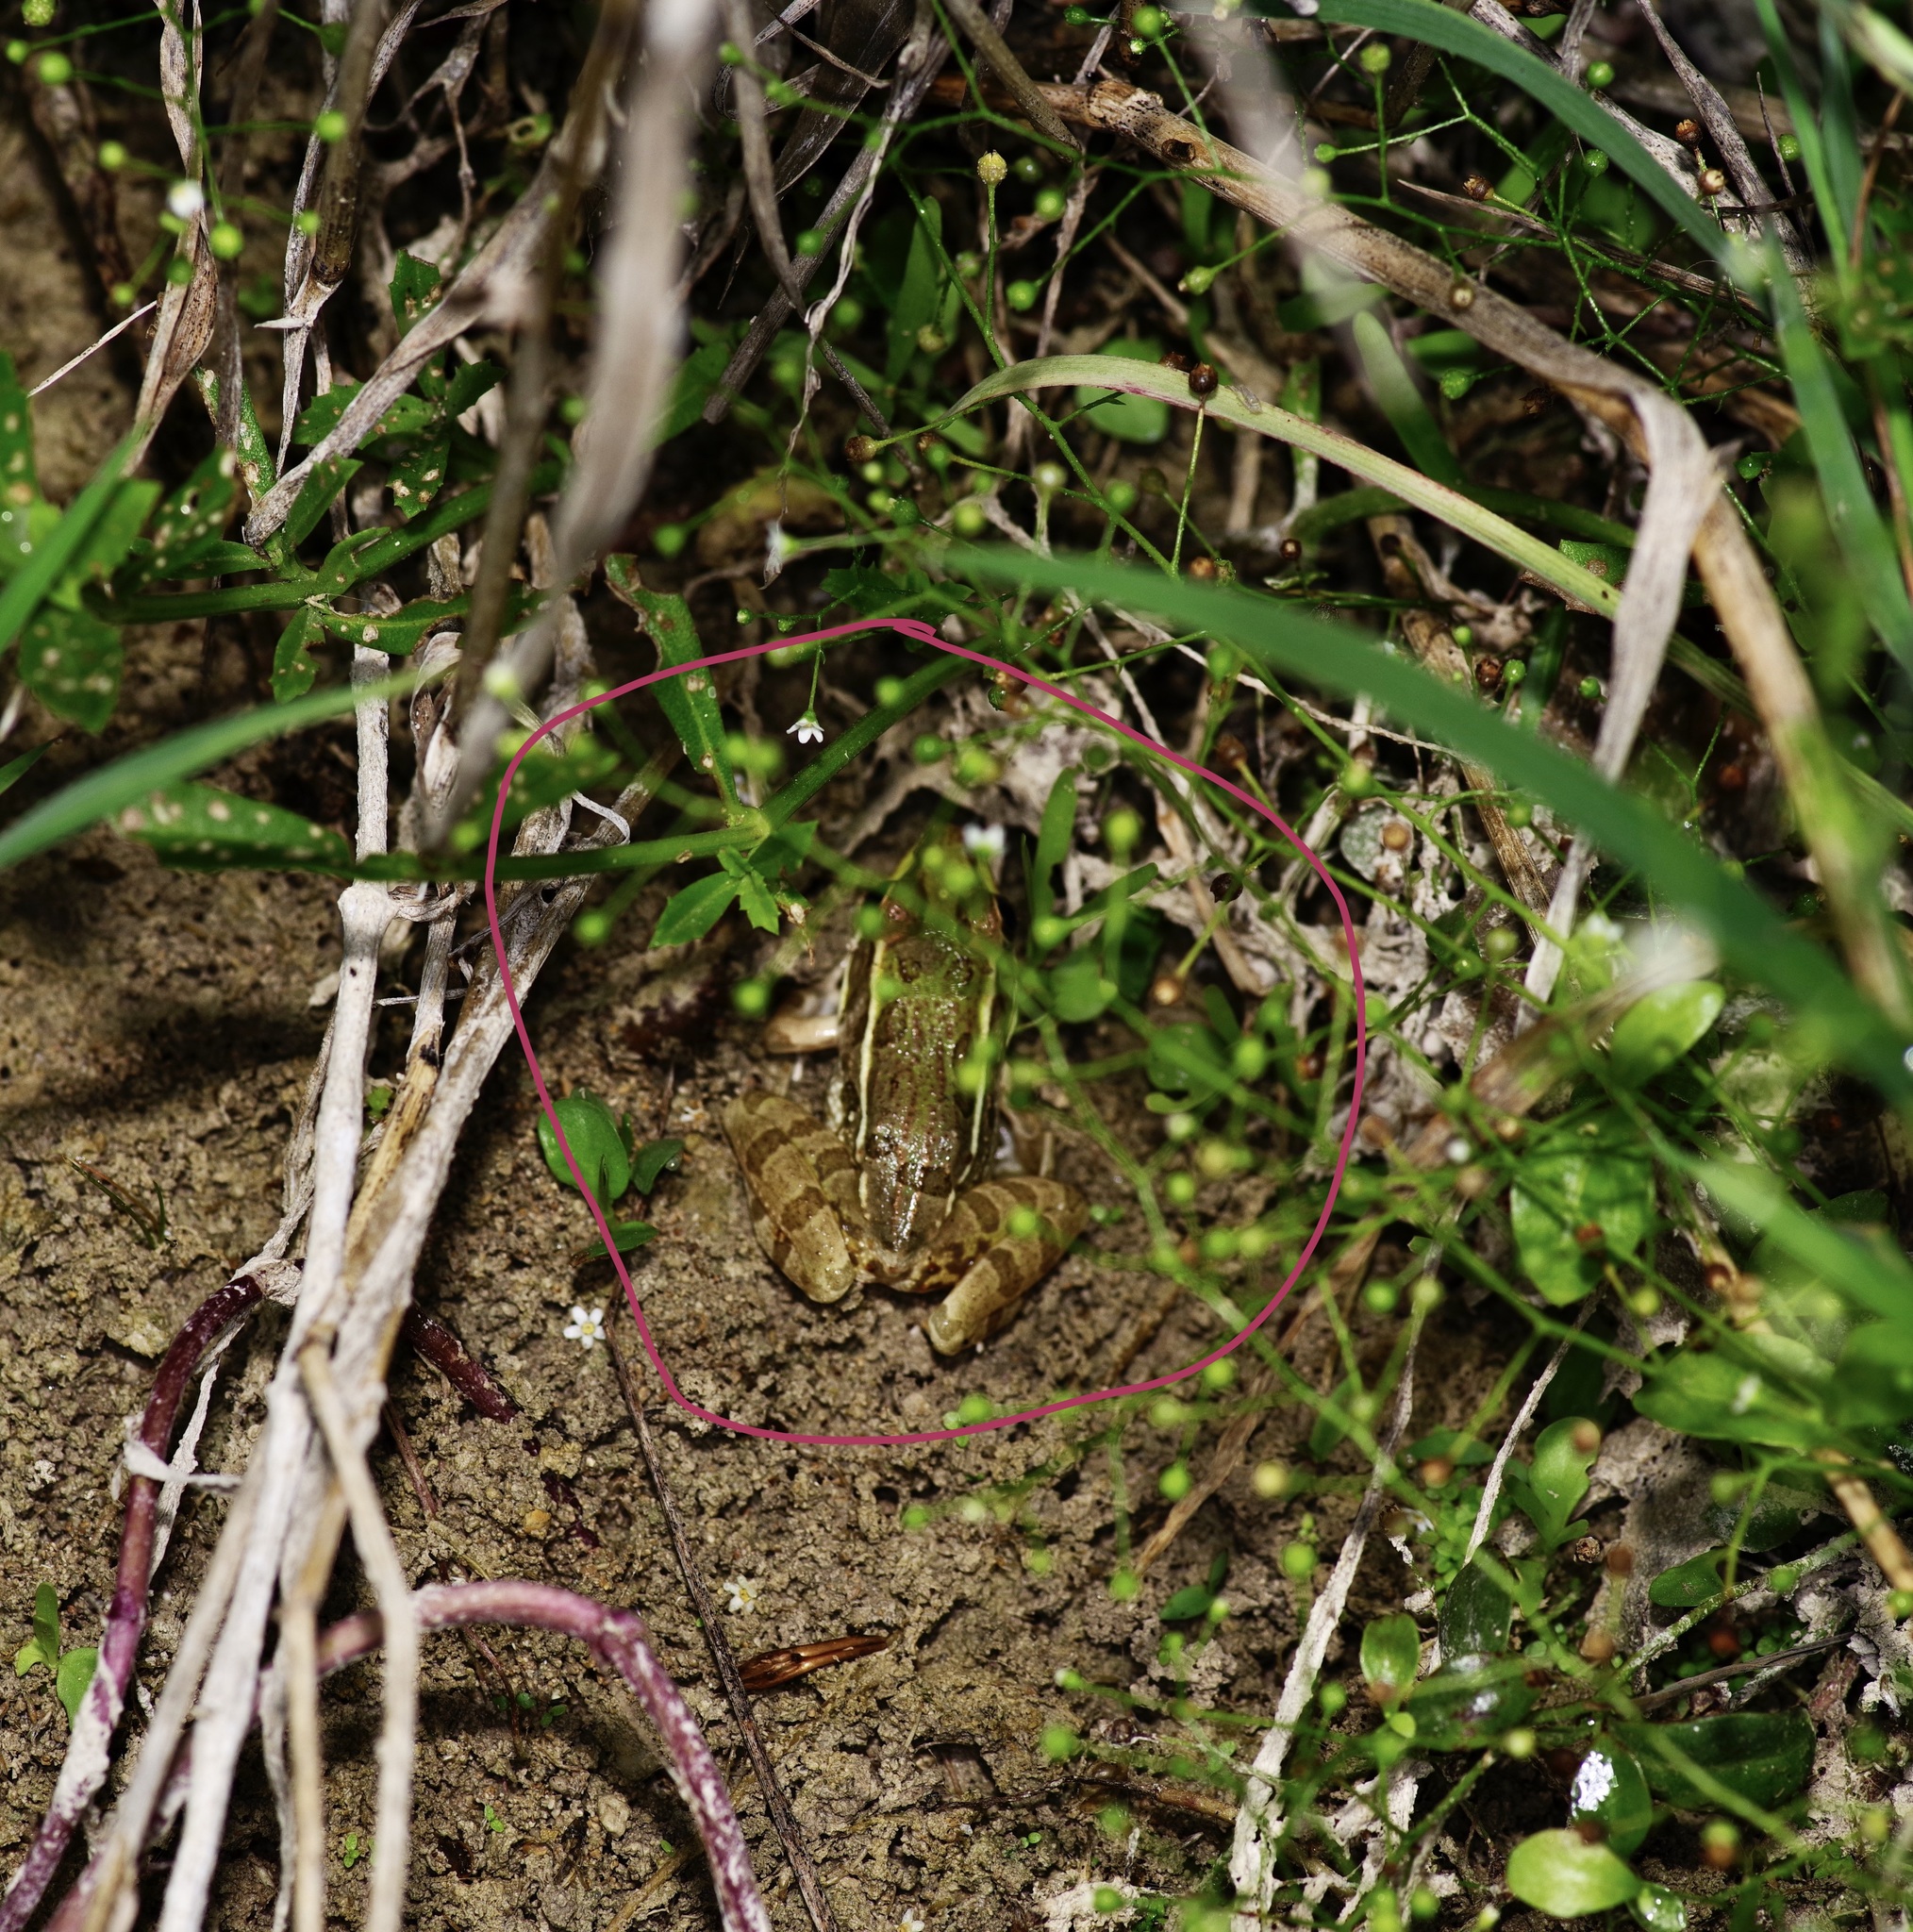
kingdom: Animalia
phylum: Chordata
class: Amphibia
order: Anura
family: Ranidae
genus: Lithobates
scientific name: Lithobates berlandieri
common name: Rio grande leopard frog
